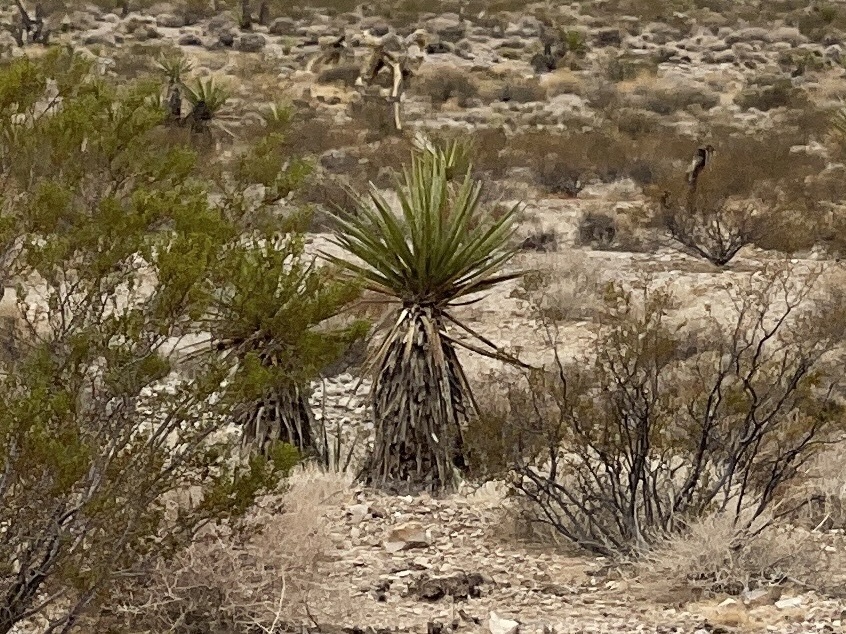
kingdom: Plantae
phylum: Tracheophyta
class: Liliopsida
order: Asparagales
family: Asparagaceae
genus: Yucca
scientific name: Yucca schidigera
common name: Mojave yucca
